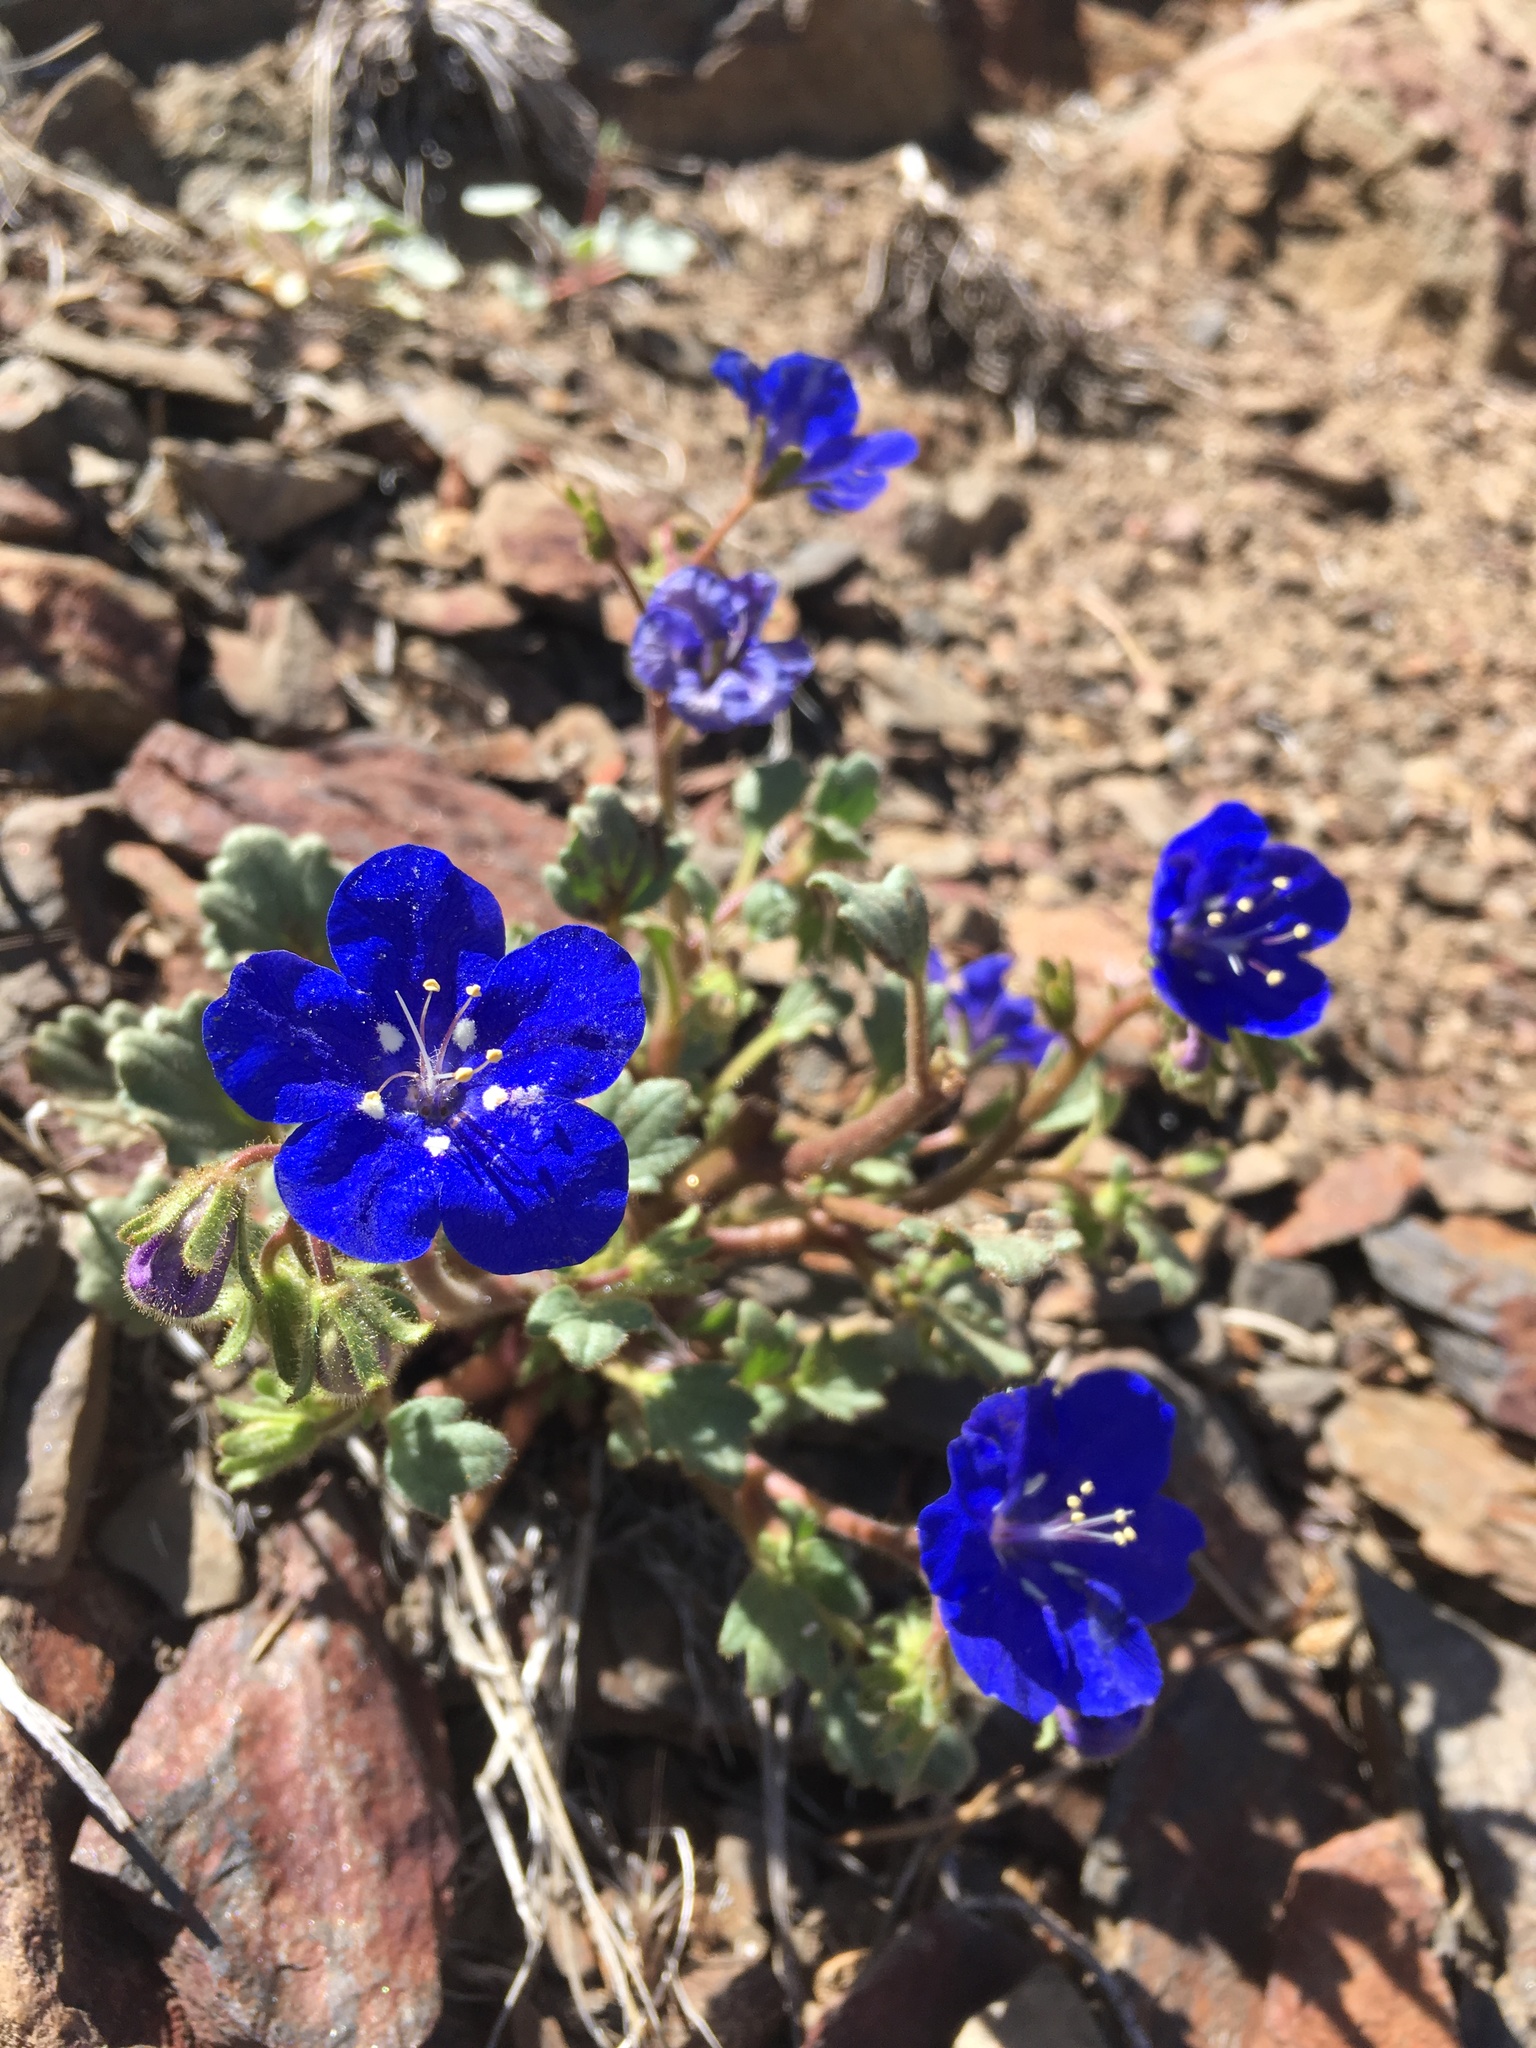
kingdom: Plantae
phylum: Tracheophyta
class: Magnoliopsida
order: Boraginales
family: Hydrophyllaceae
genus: Phacelia
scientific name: Phacelia nashiana
